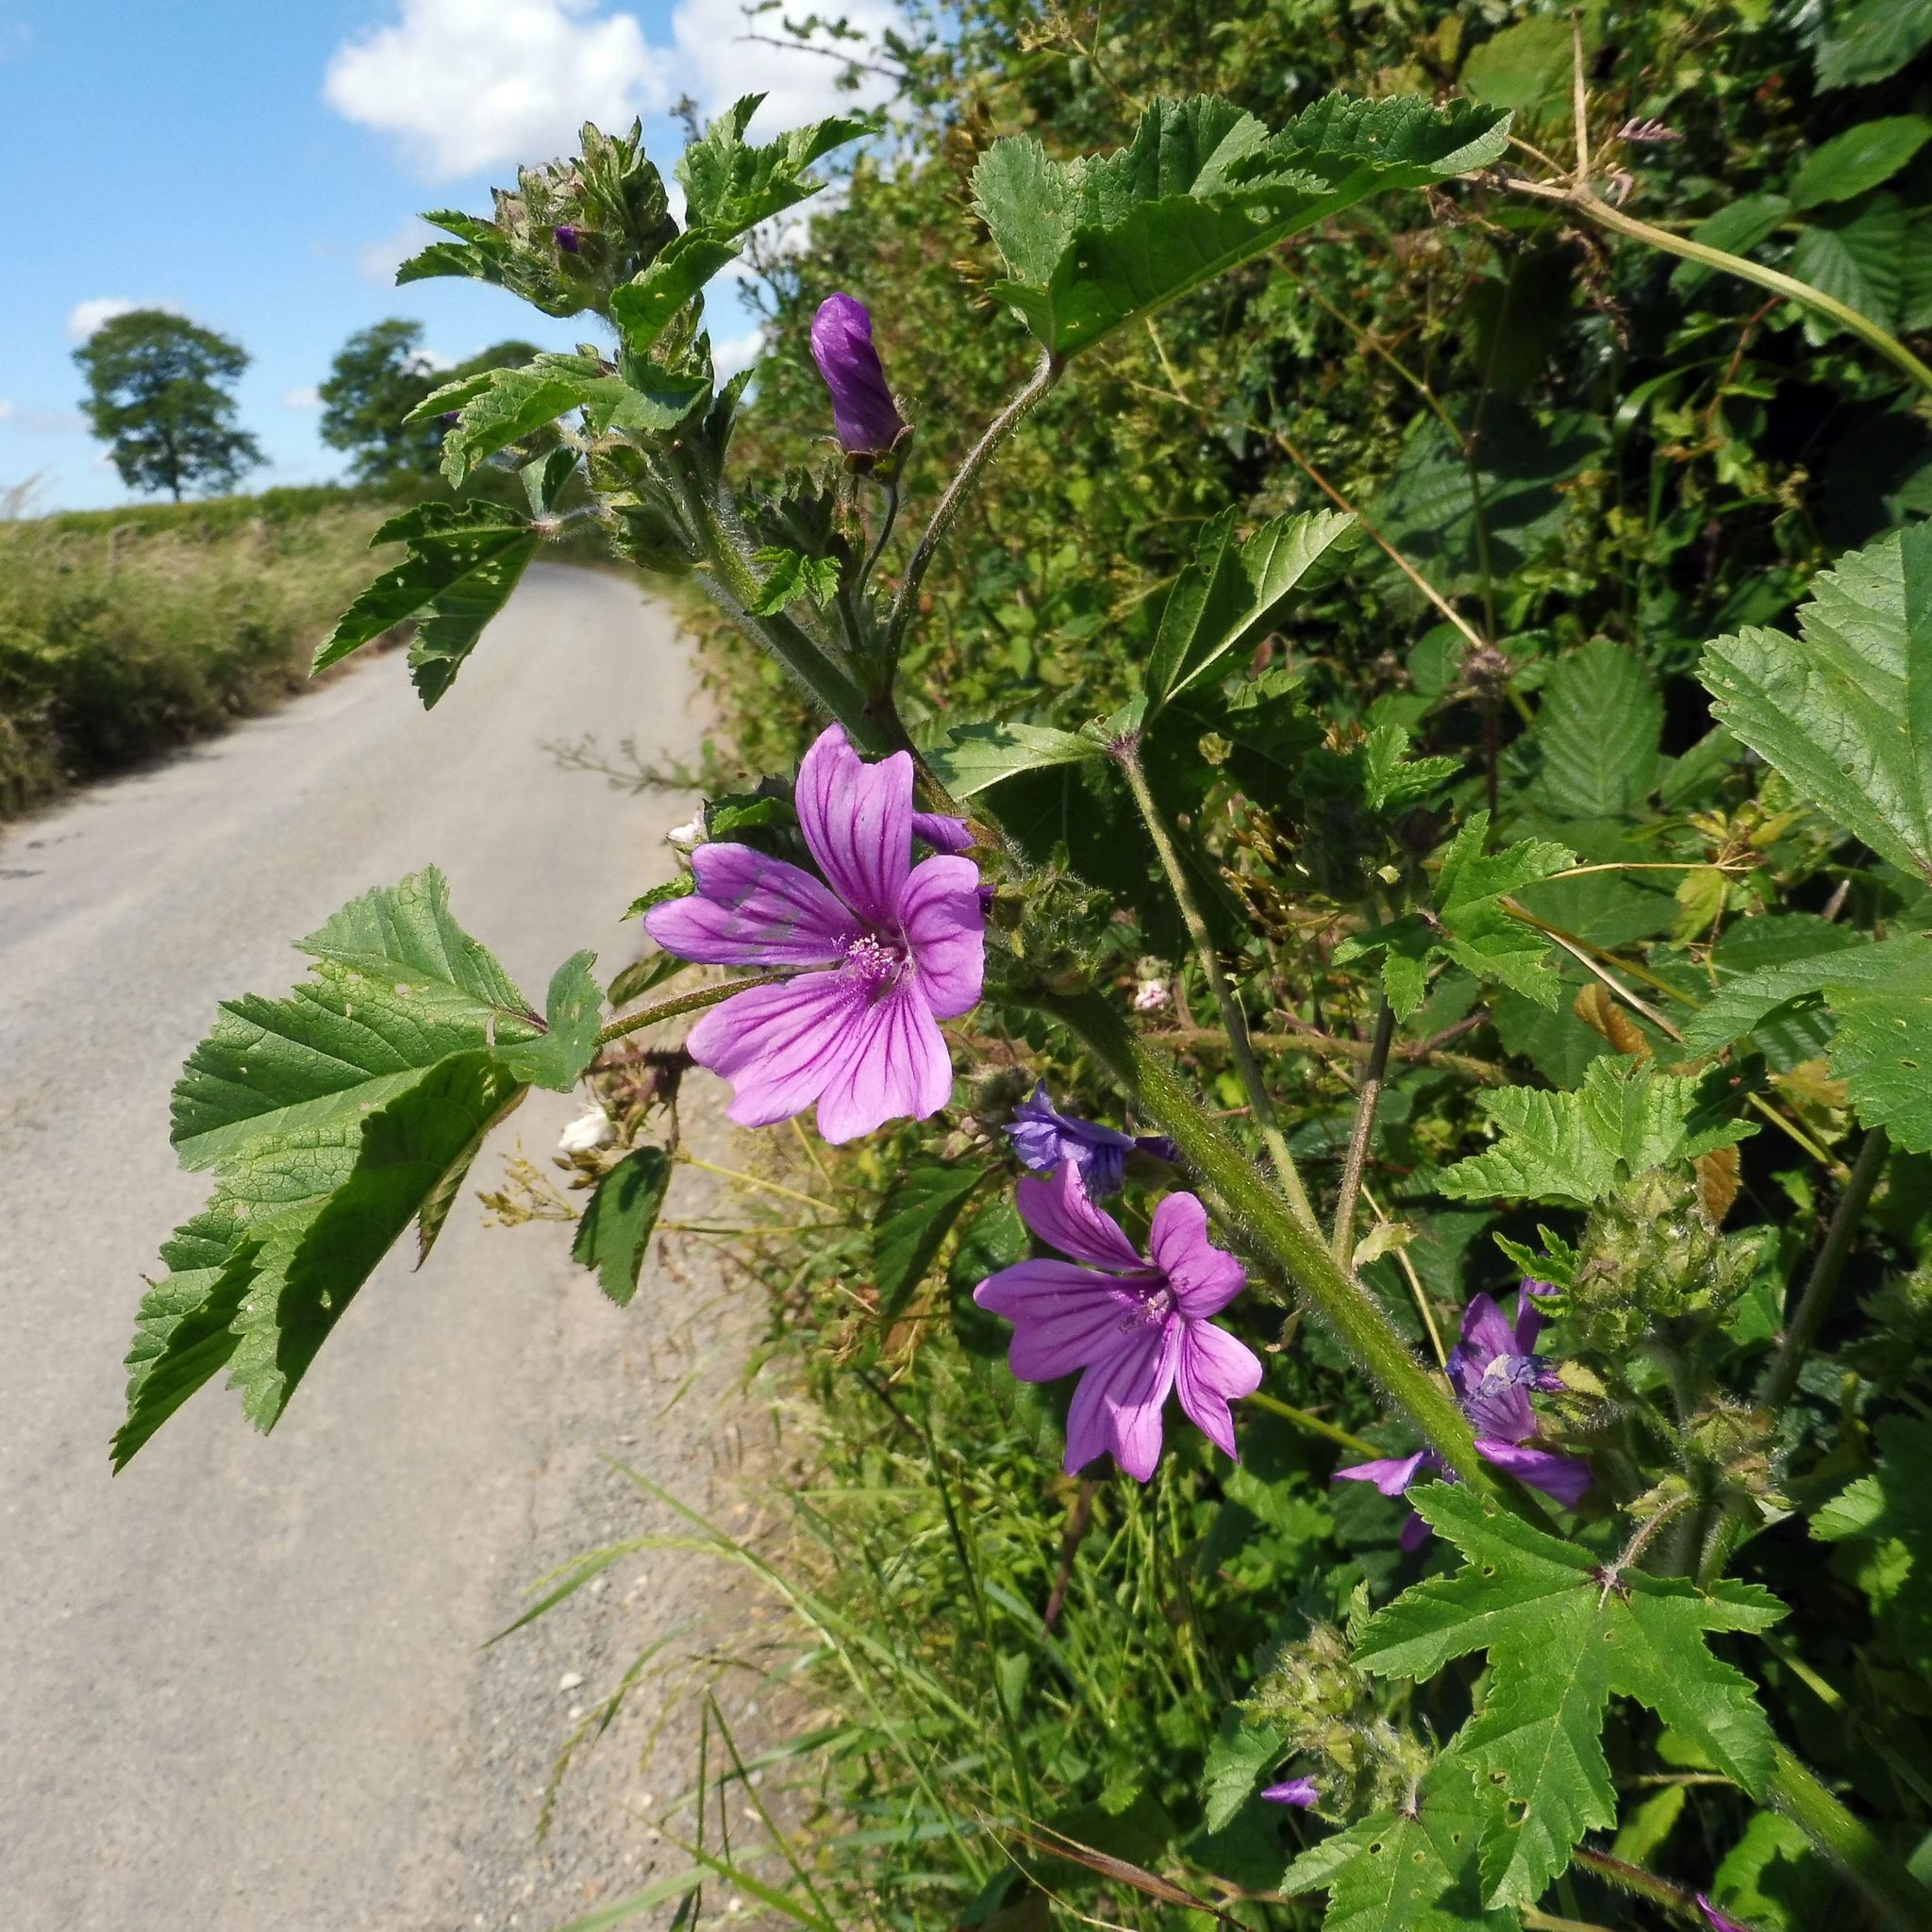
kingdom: Plantae
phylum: Tracheophyta
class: Magnoliopsida
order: Malvales
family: Malvaceae
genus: Malva
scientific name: Malva sylvestris
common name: Common mallow
